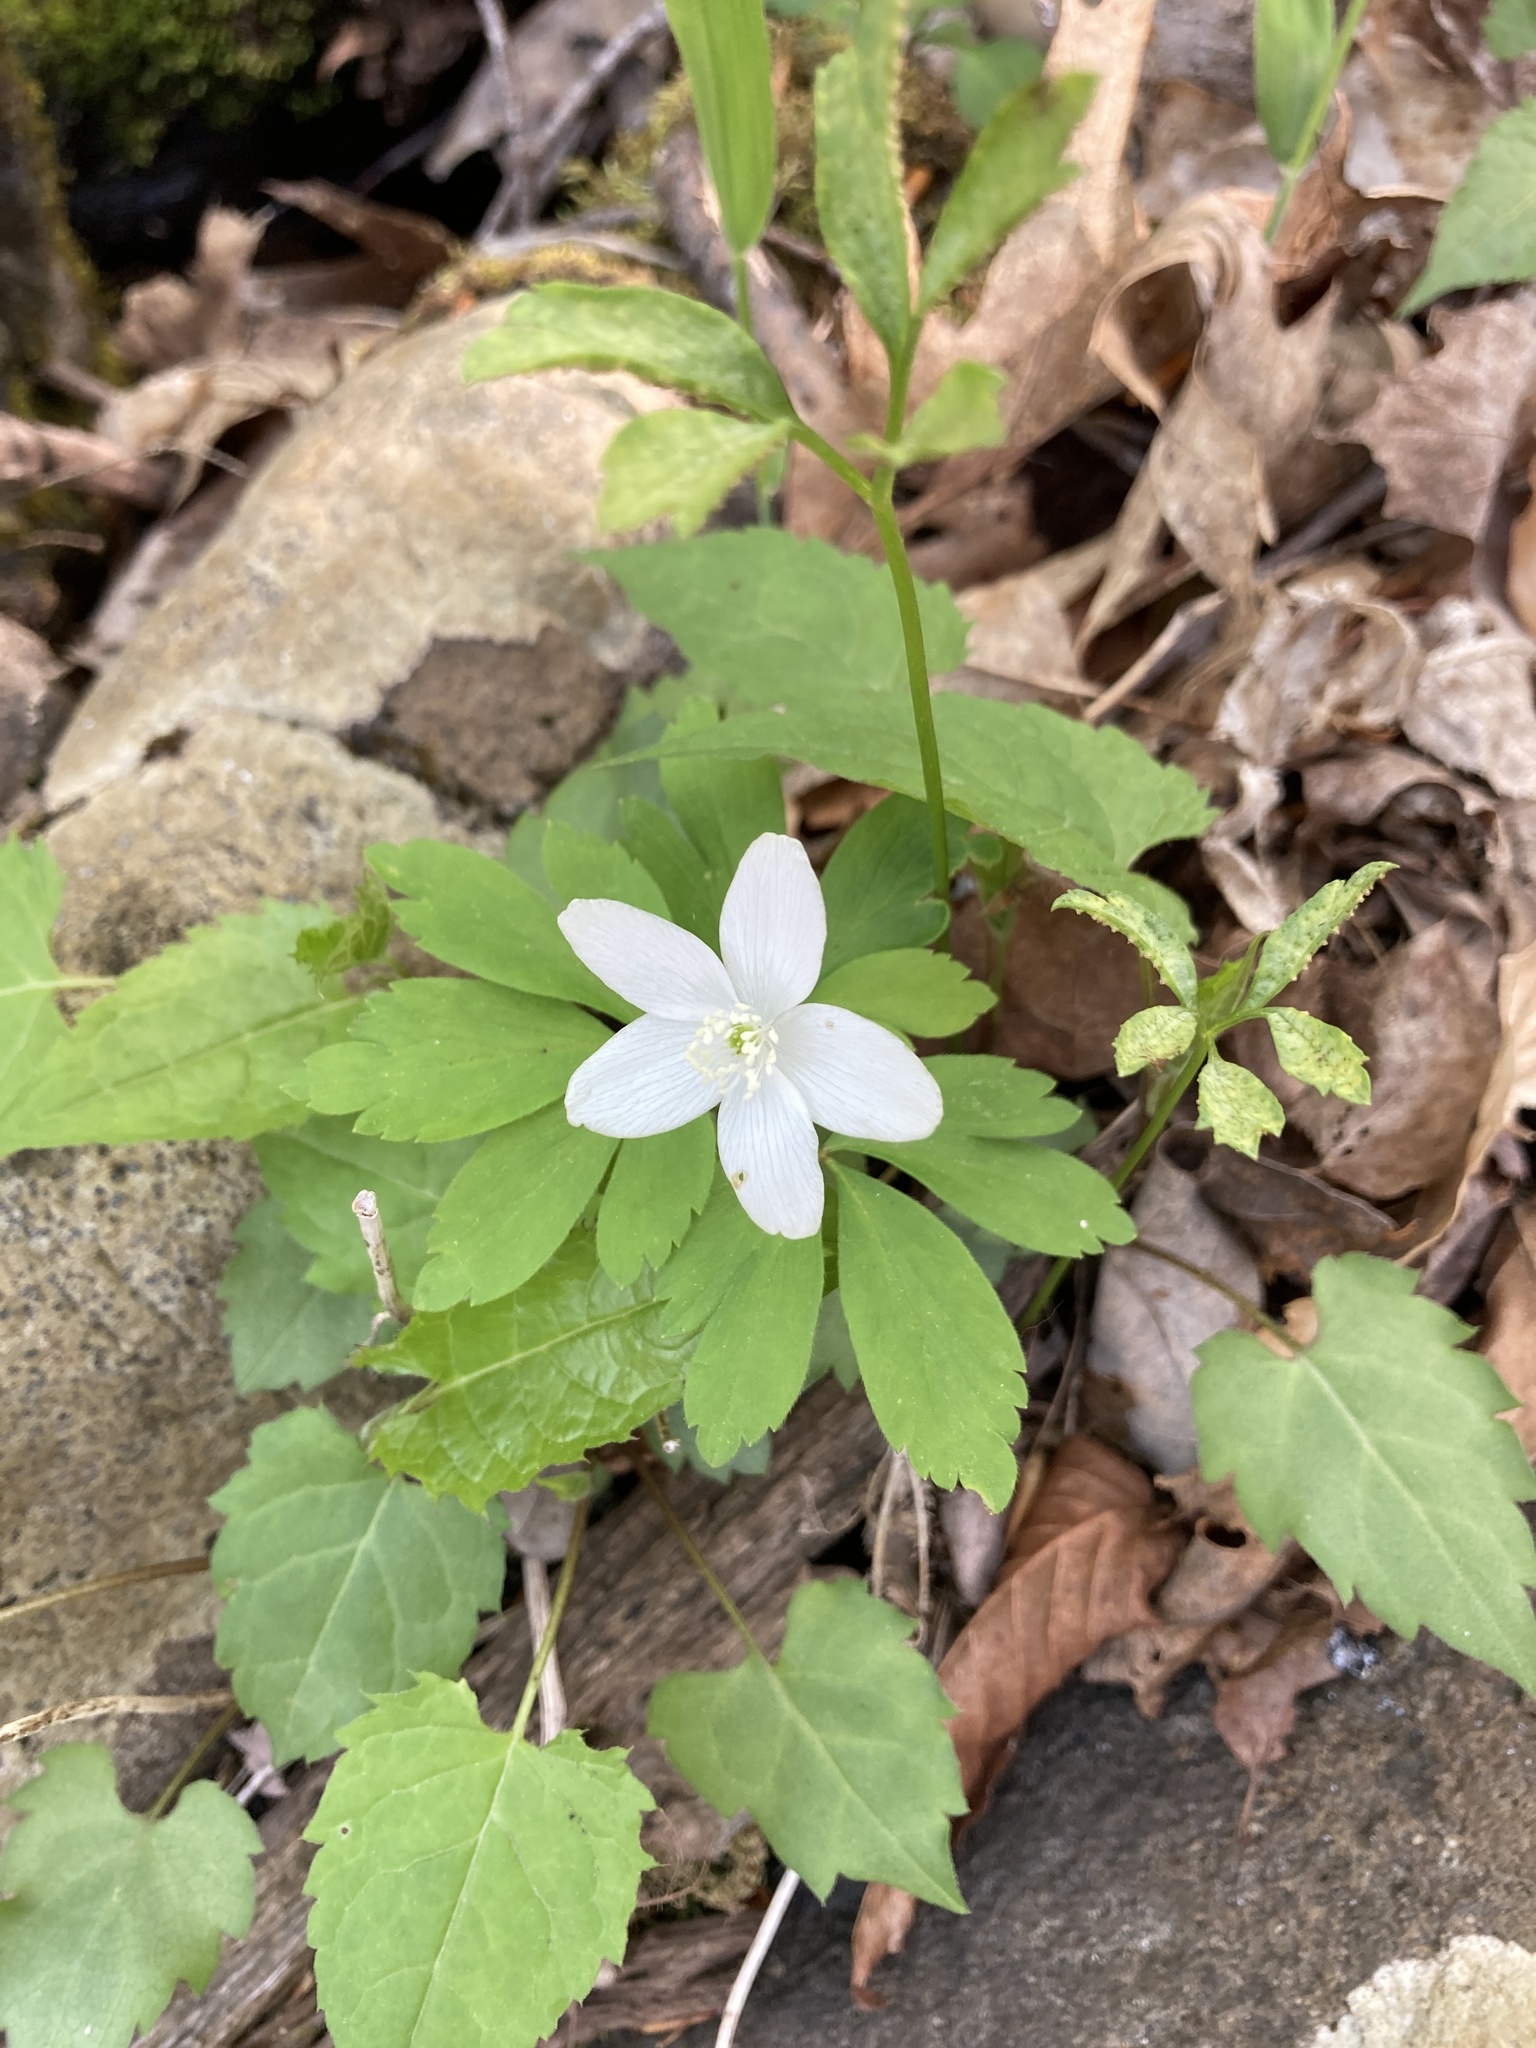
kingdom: Plantae
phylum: Tracheophyta
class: Magnoliopsida
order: Ranunculales
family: Ranunculaceae
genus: Anemone
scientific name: Anemone quinquefolia
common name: Wood anemone
